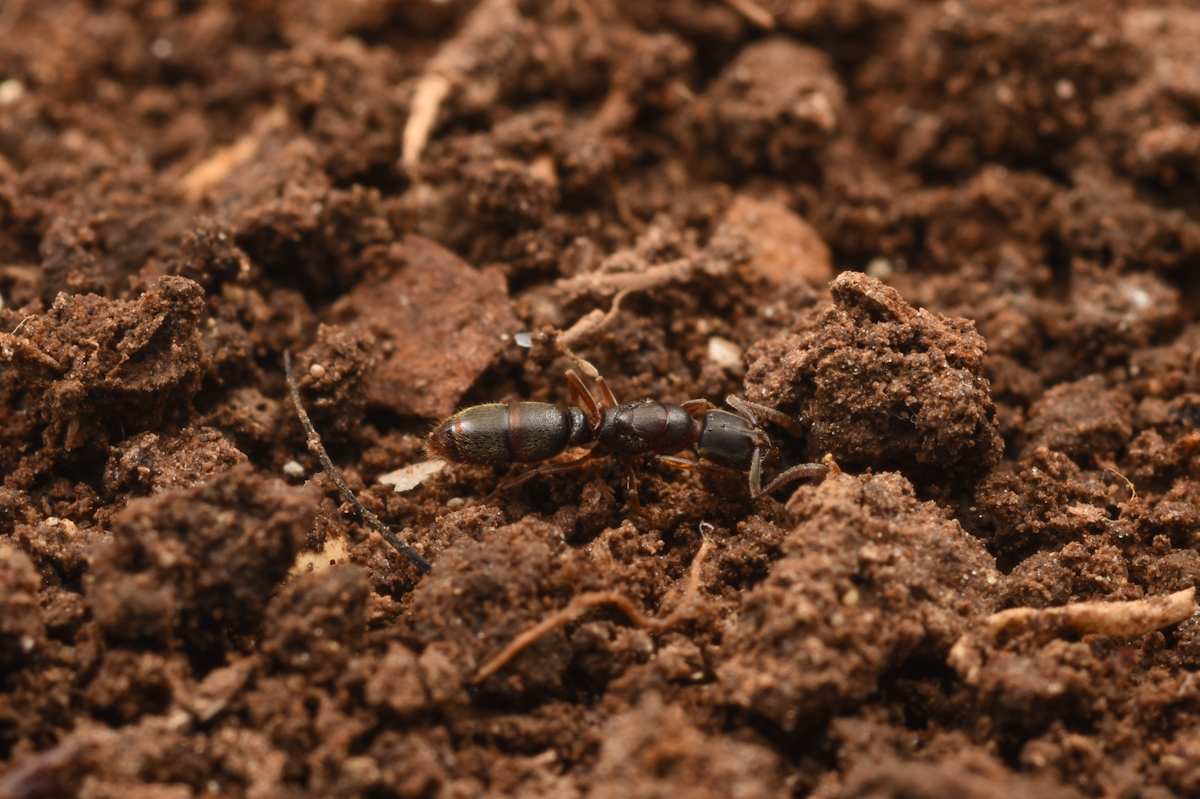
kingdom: Animalia
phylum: Arthropoda
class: Insecta
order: Hymenoptera
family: Formicidae
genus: Ponera
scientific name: Ponera japonica
